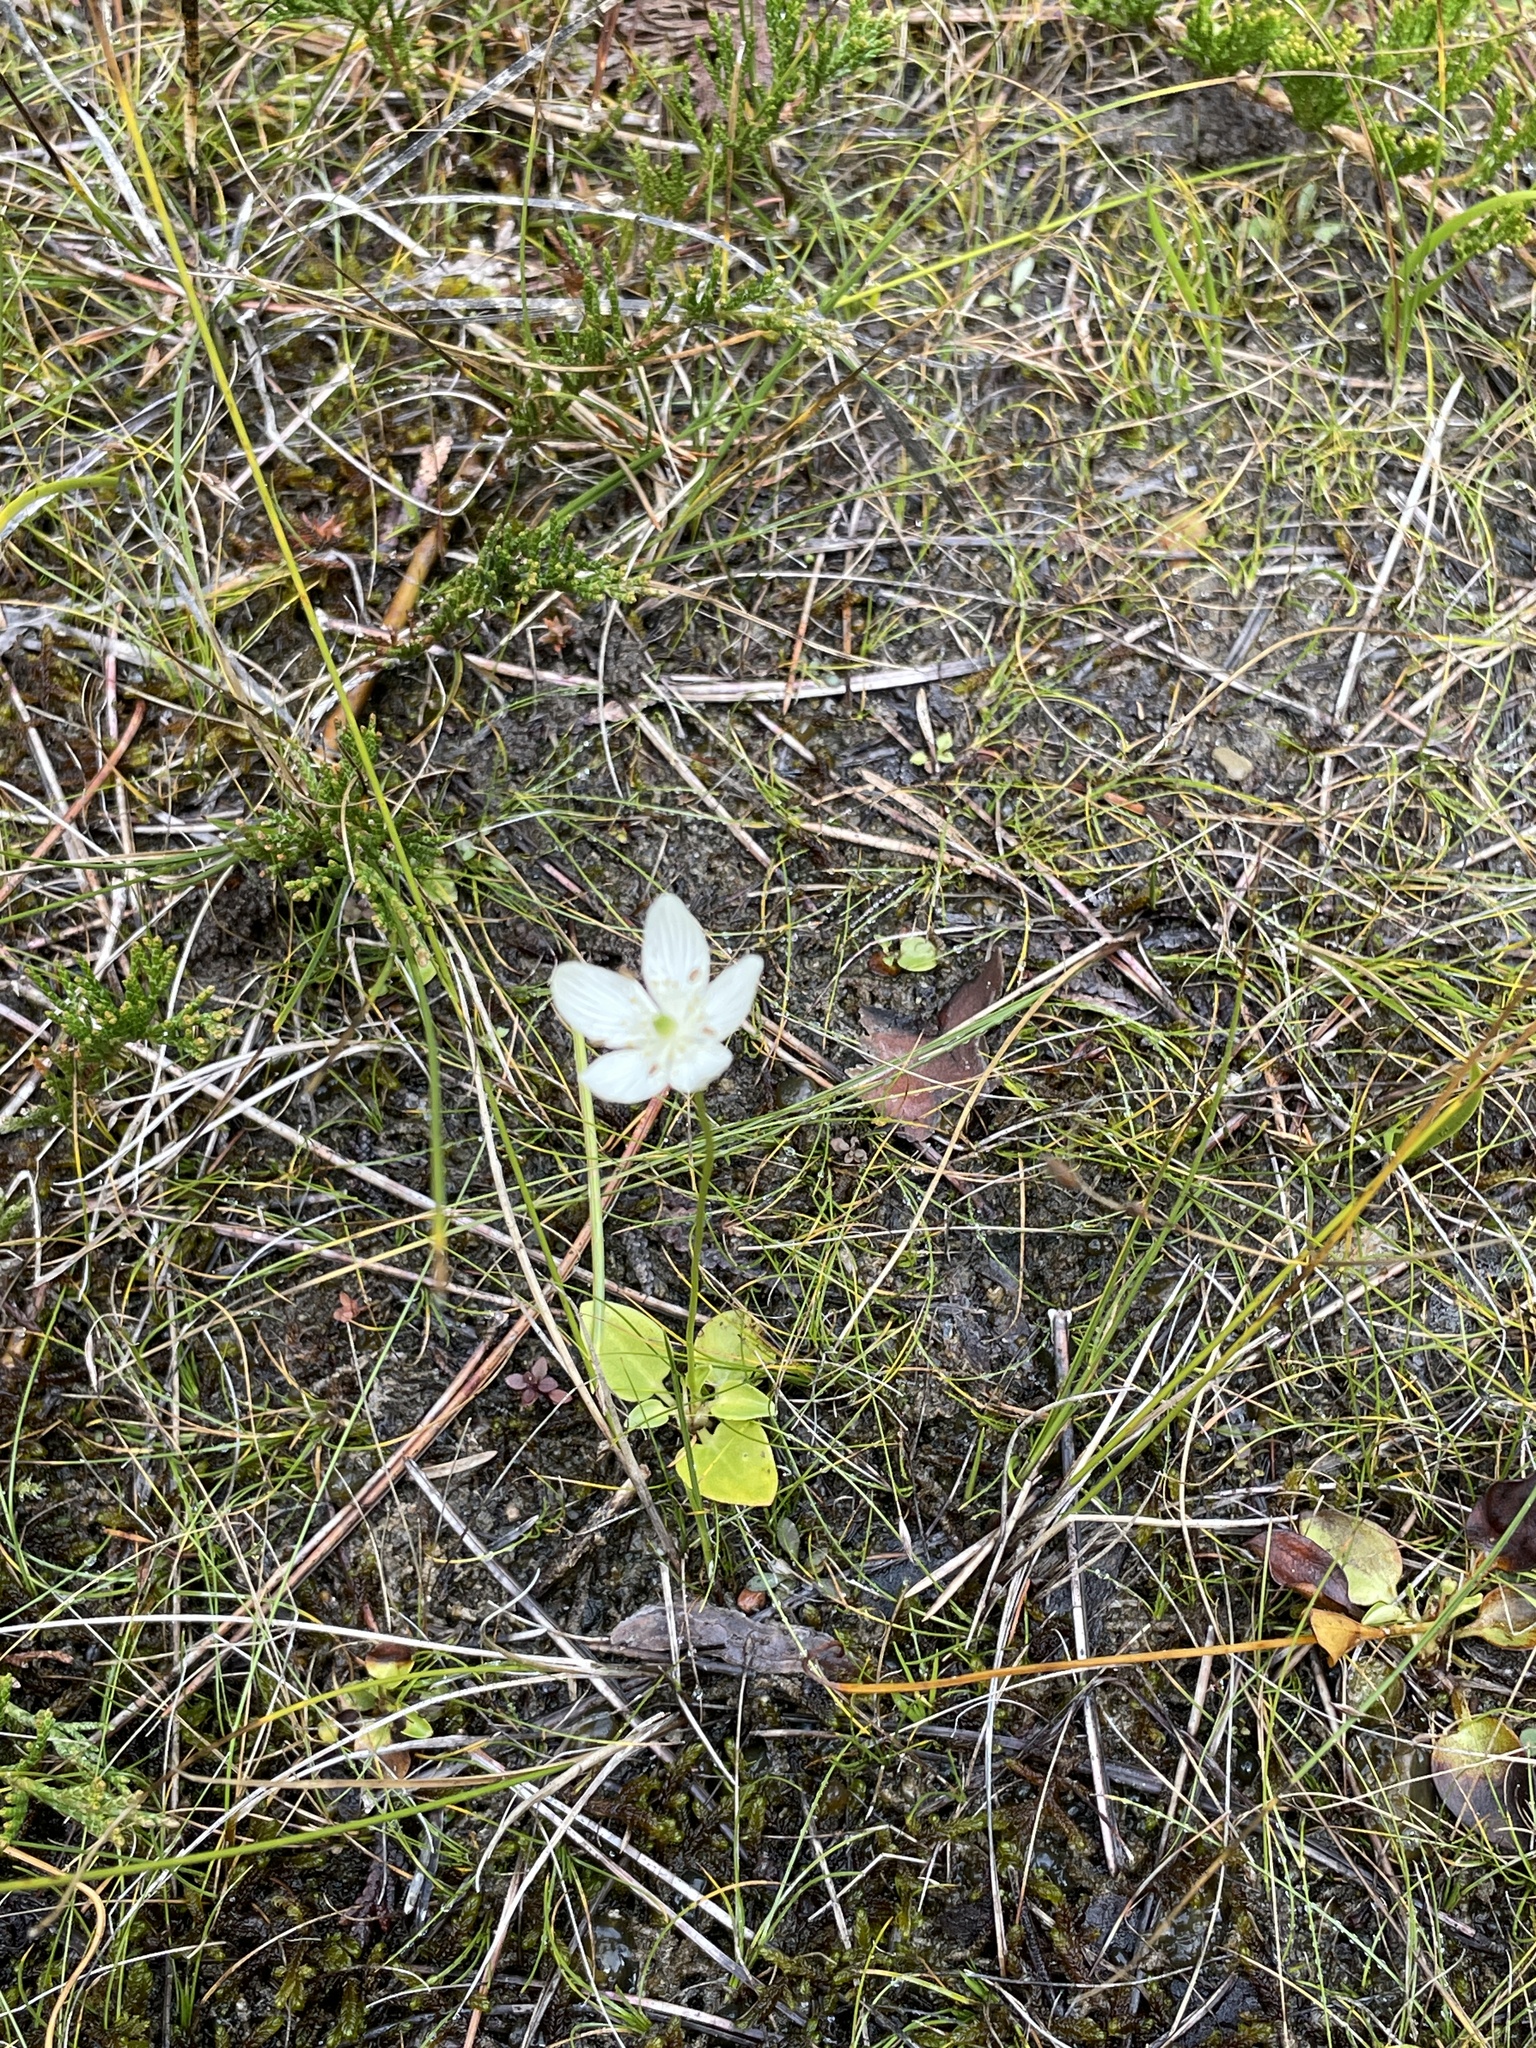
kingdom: Plantae
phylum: Tracheophyta
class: Magnoliopsida
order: Celastrales
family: Parnassiaceae
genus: Parnassia
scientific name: Parnassia glauca
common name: American grass-of-parnassus
